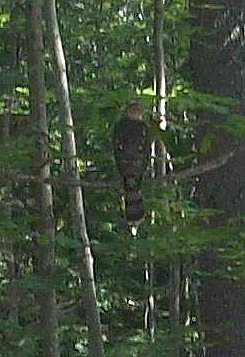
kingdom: Animalia
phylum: Chordata
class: Aves
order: Accipitriformes
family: Accipitridae
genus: Accipiter
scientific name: Accipiter cooperii
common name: Cooper's hawk
